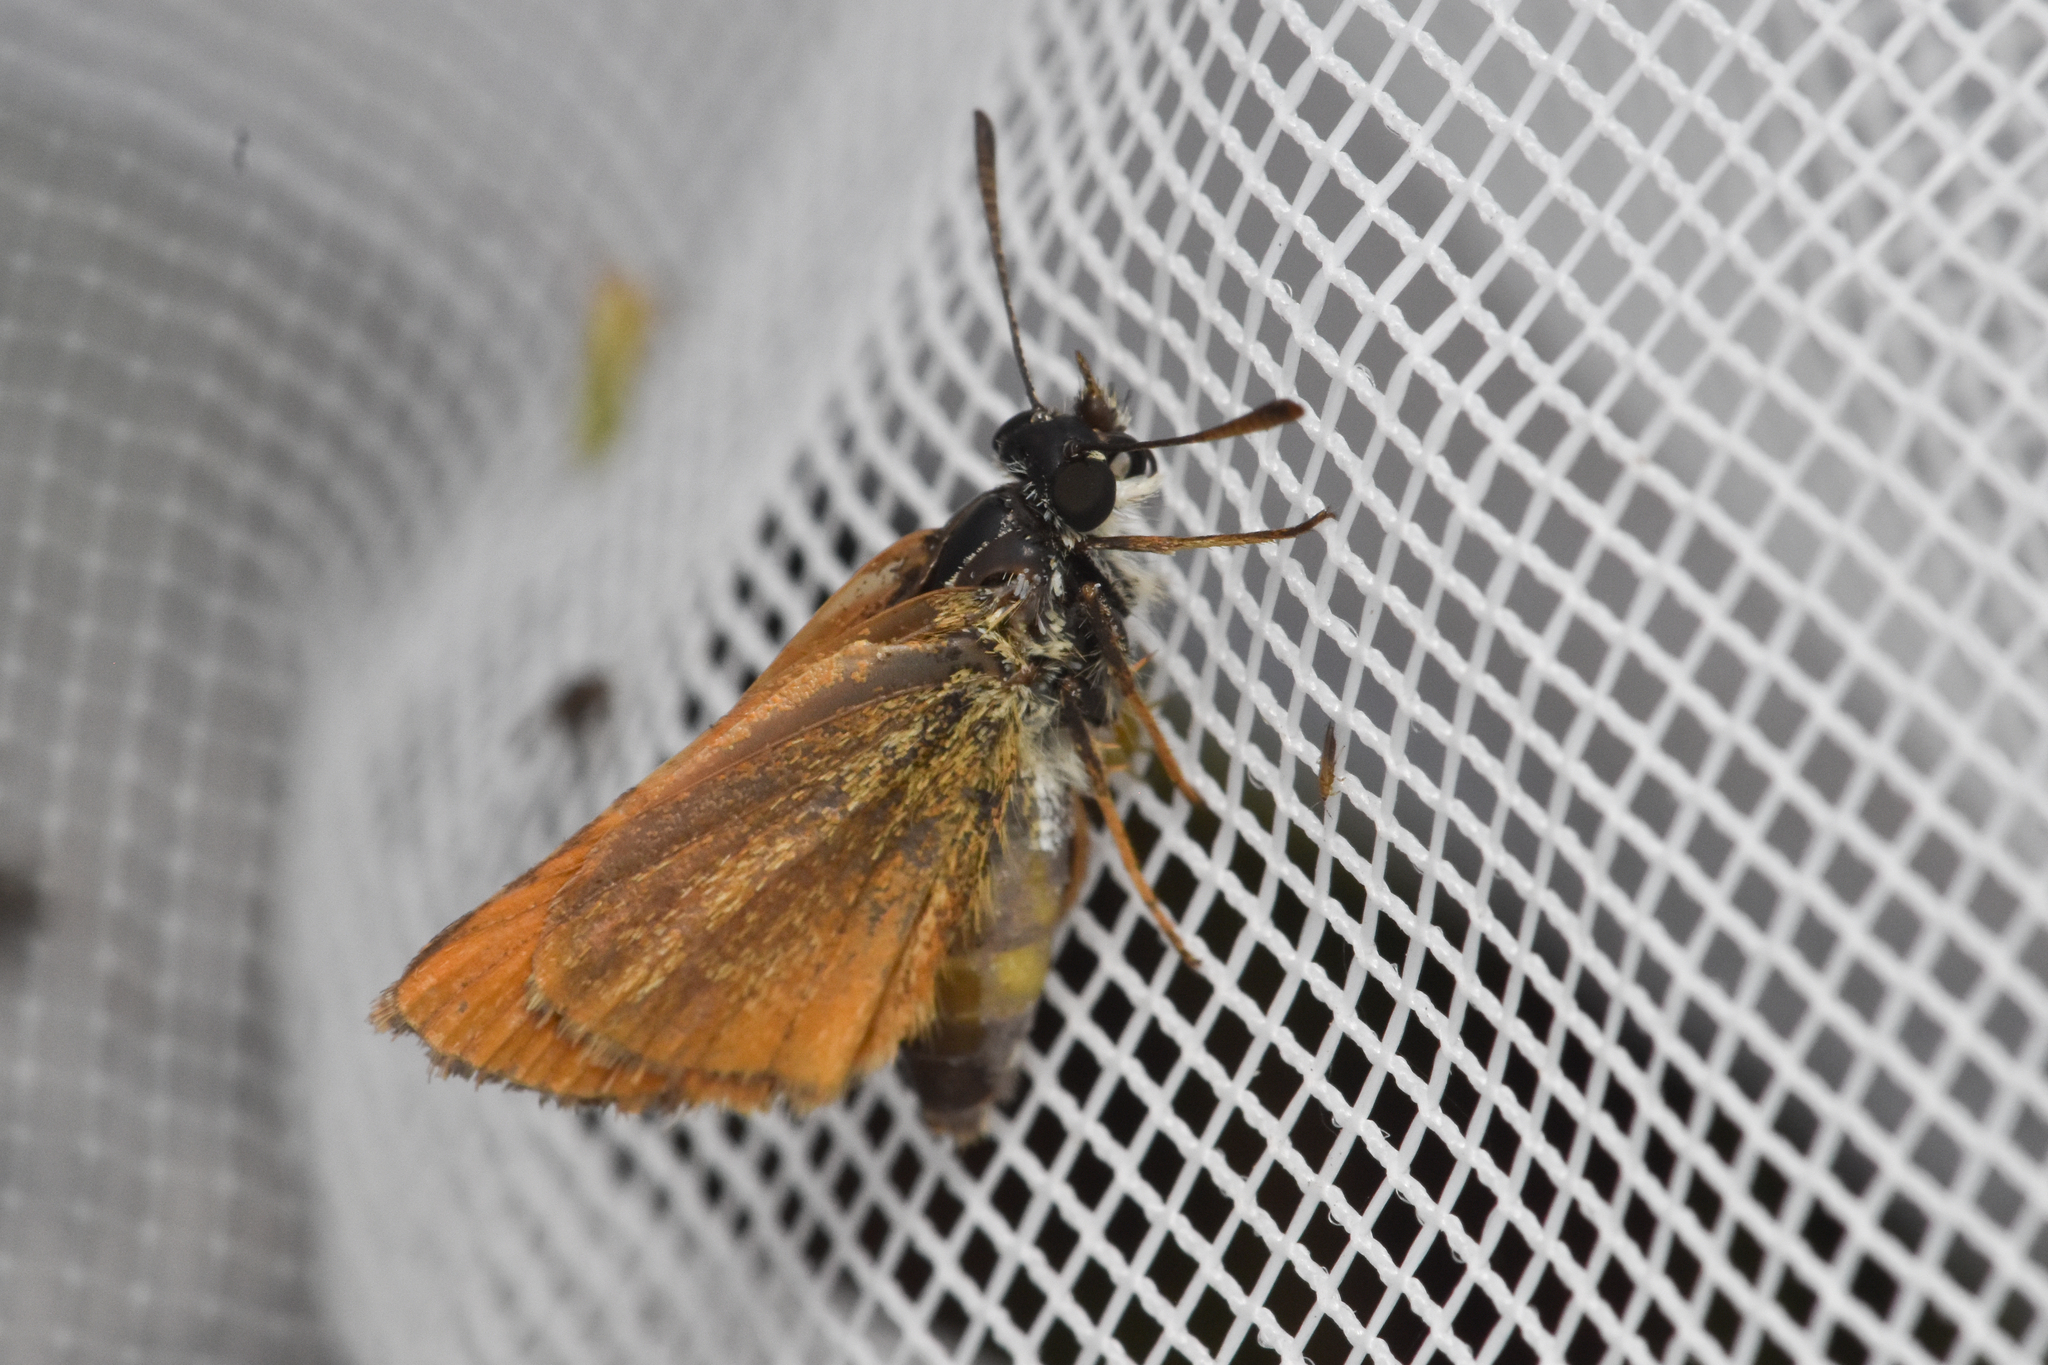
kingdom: Animalia
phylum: Arthropoda
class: Insecta
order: Lepidoptera
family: Hesperiidae
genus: Thymelicus
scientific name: Thymelicus lineola
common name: Essex skipper
